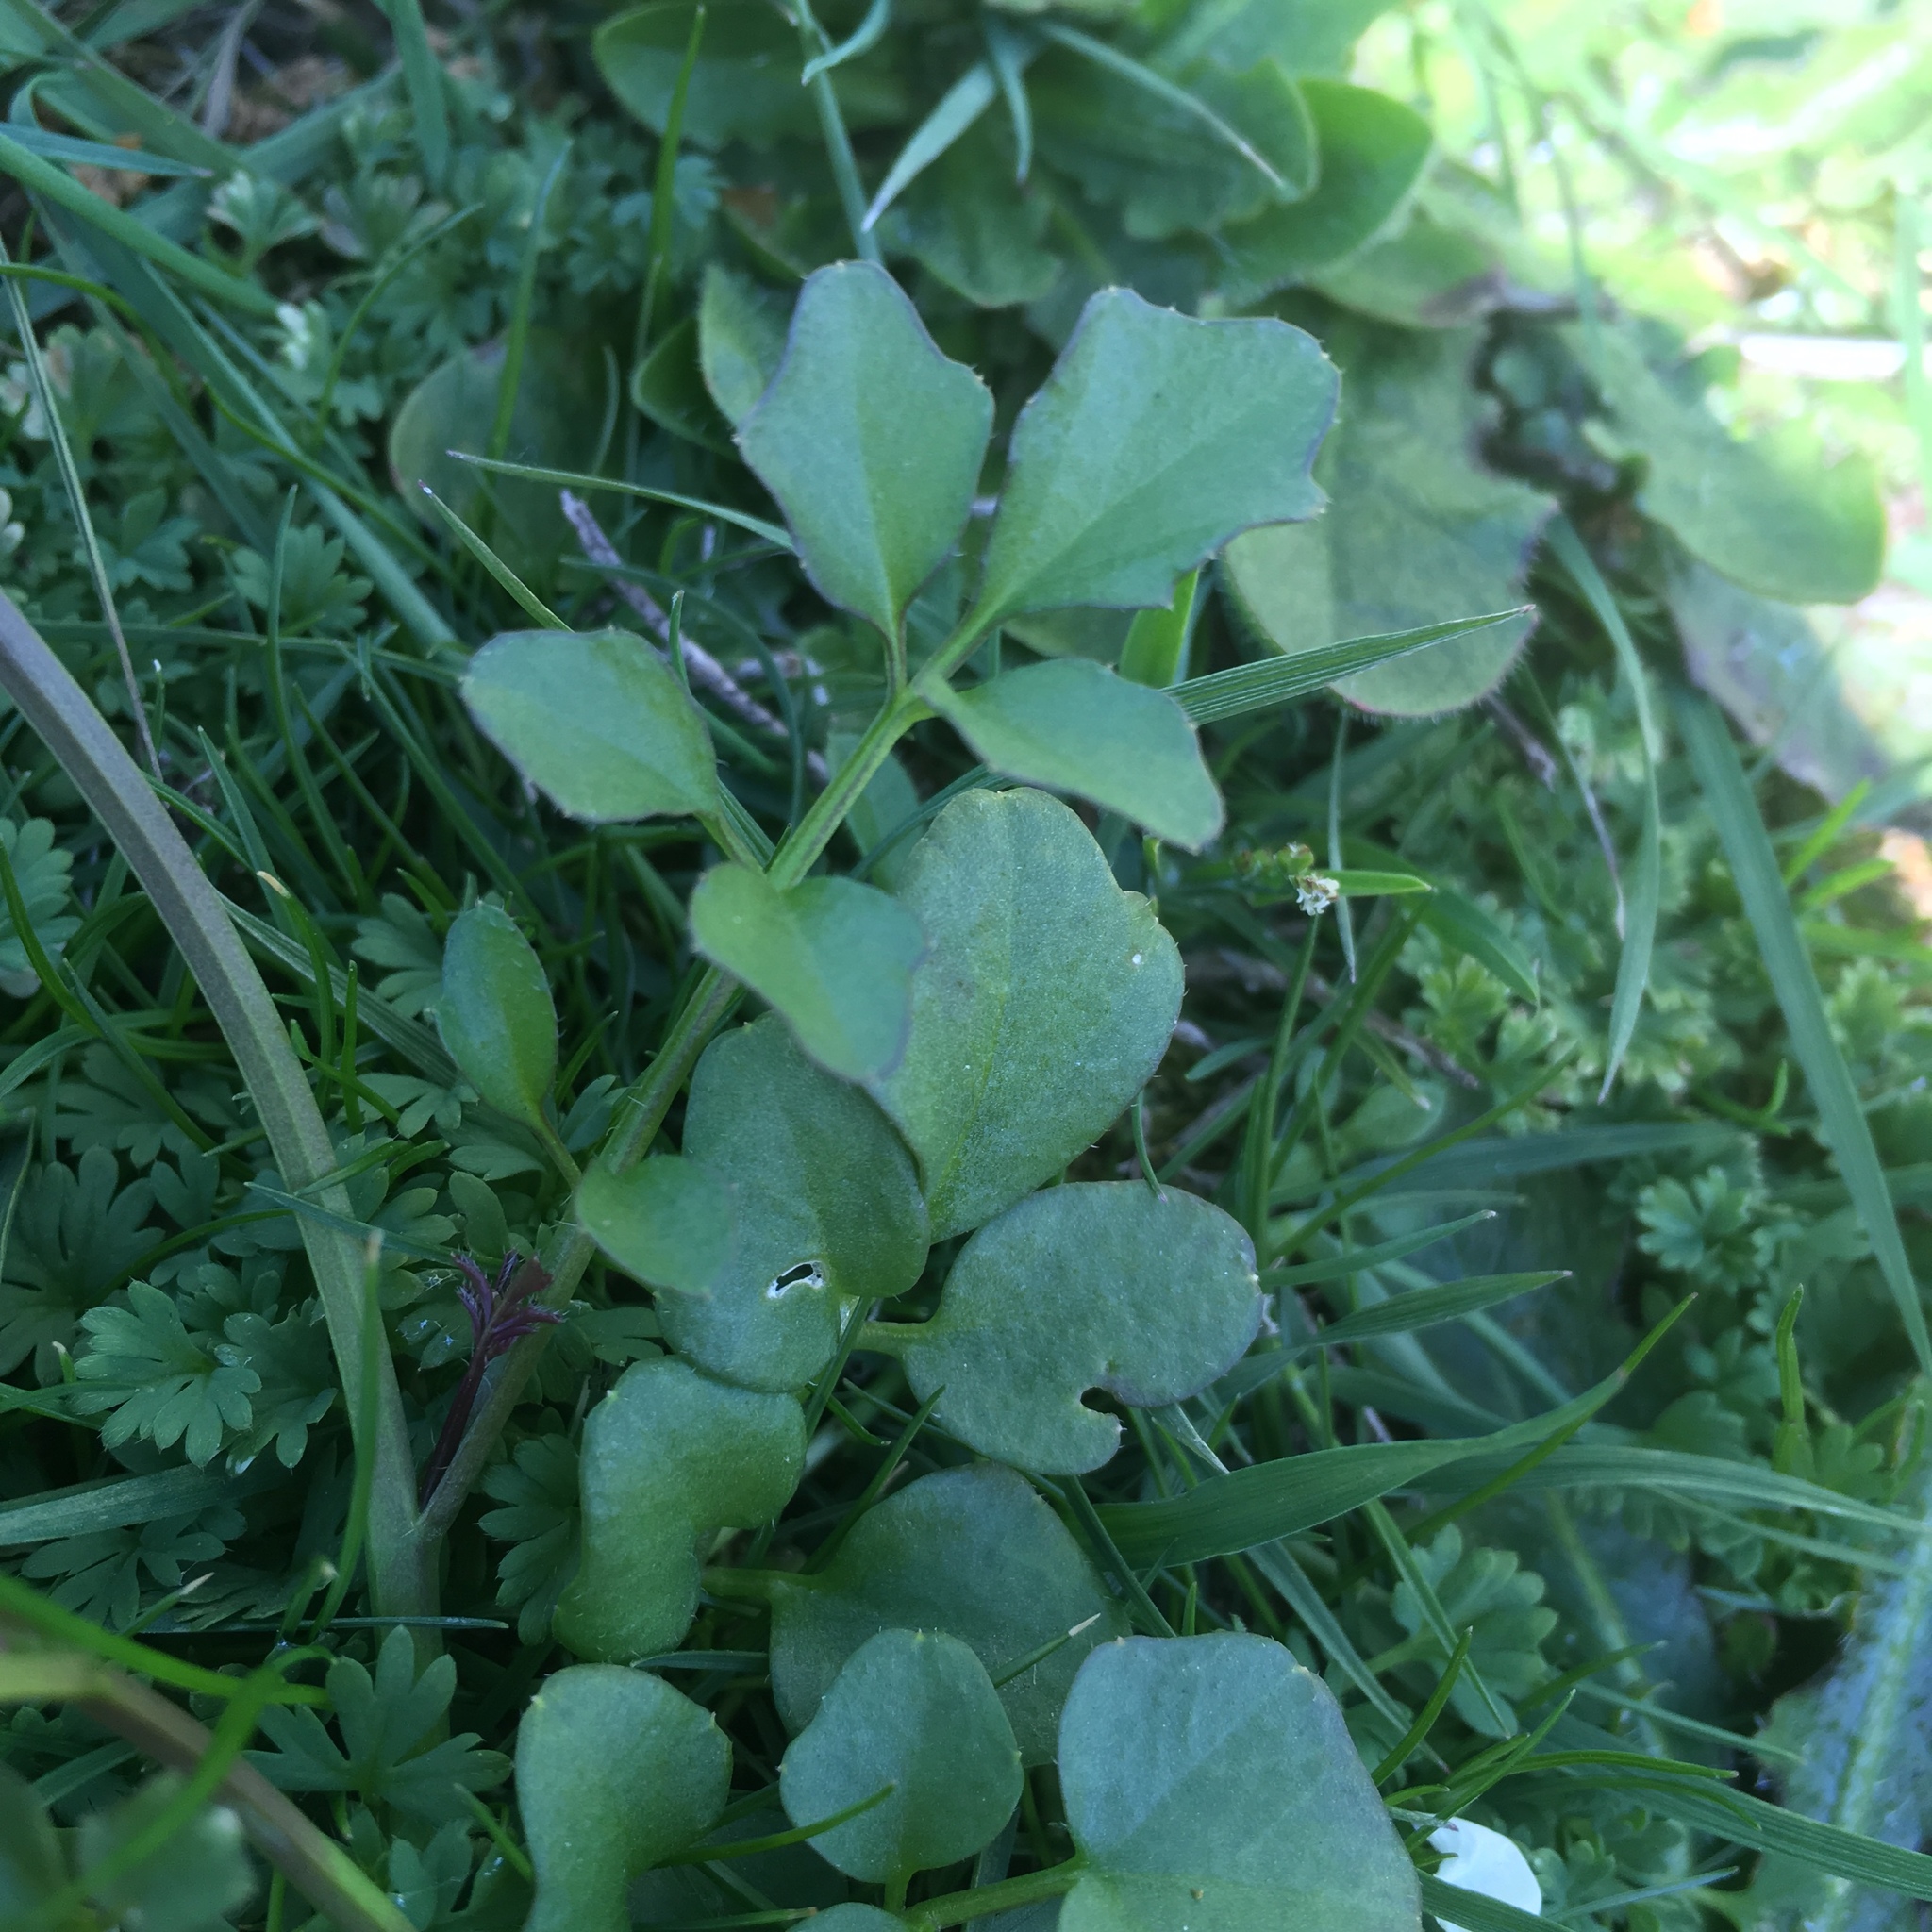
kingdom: Plantae
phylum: Tracheophyta
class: Magnoliopsida
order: Brassicales
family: Brassicaceae
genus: Cardamine
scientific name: Cardamine hirsuta
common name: Hairy bittercress
